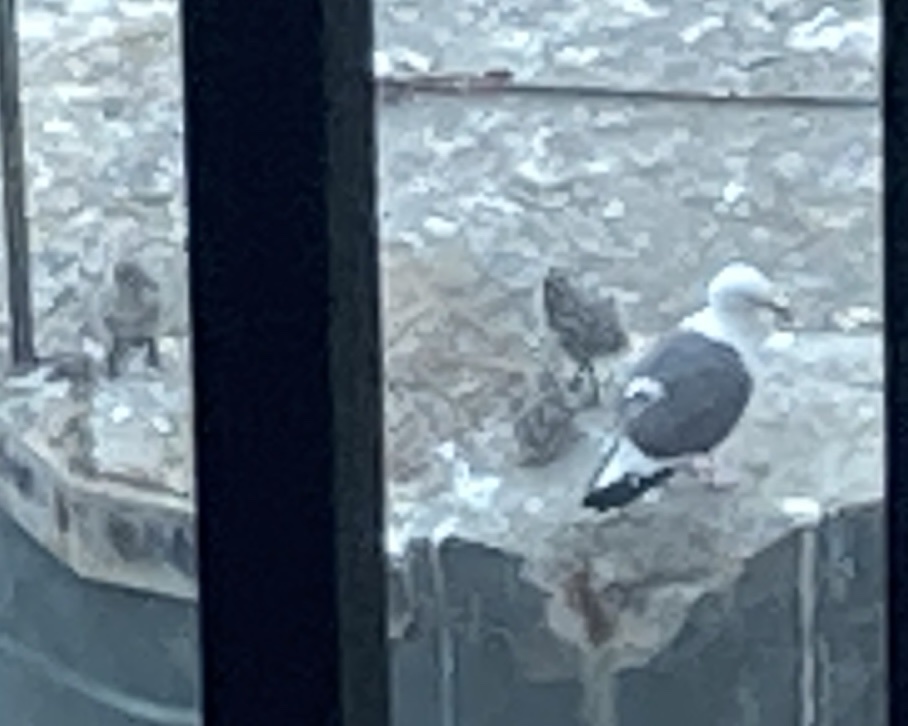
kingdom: Animalia
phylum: Chordata
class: Aves
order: Charadriiformes
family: Laridae
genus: Larus
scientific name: Larus occidentalis
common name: Western gull
